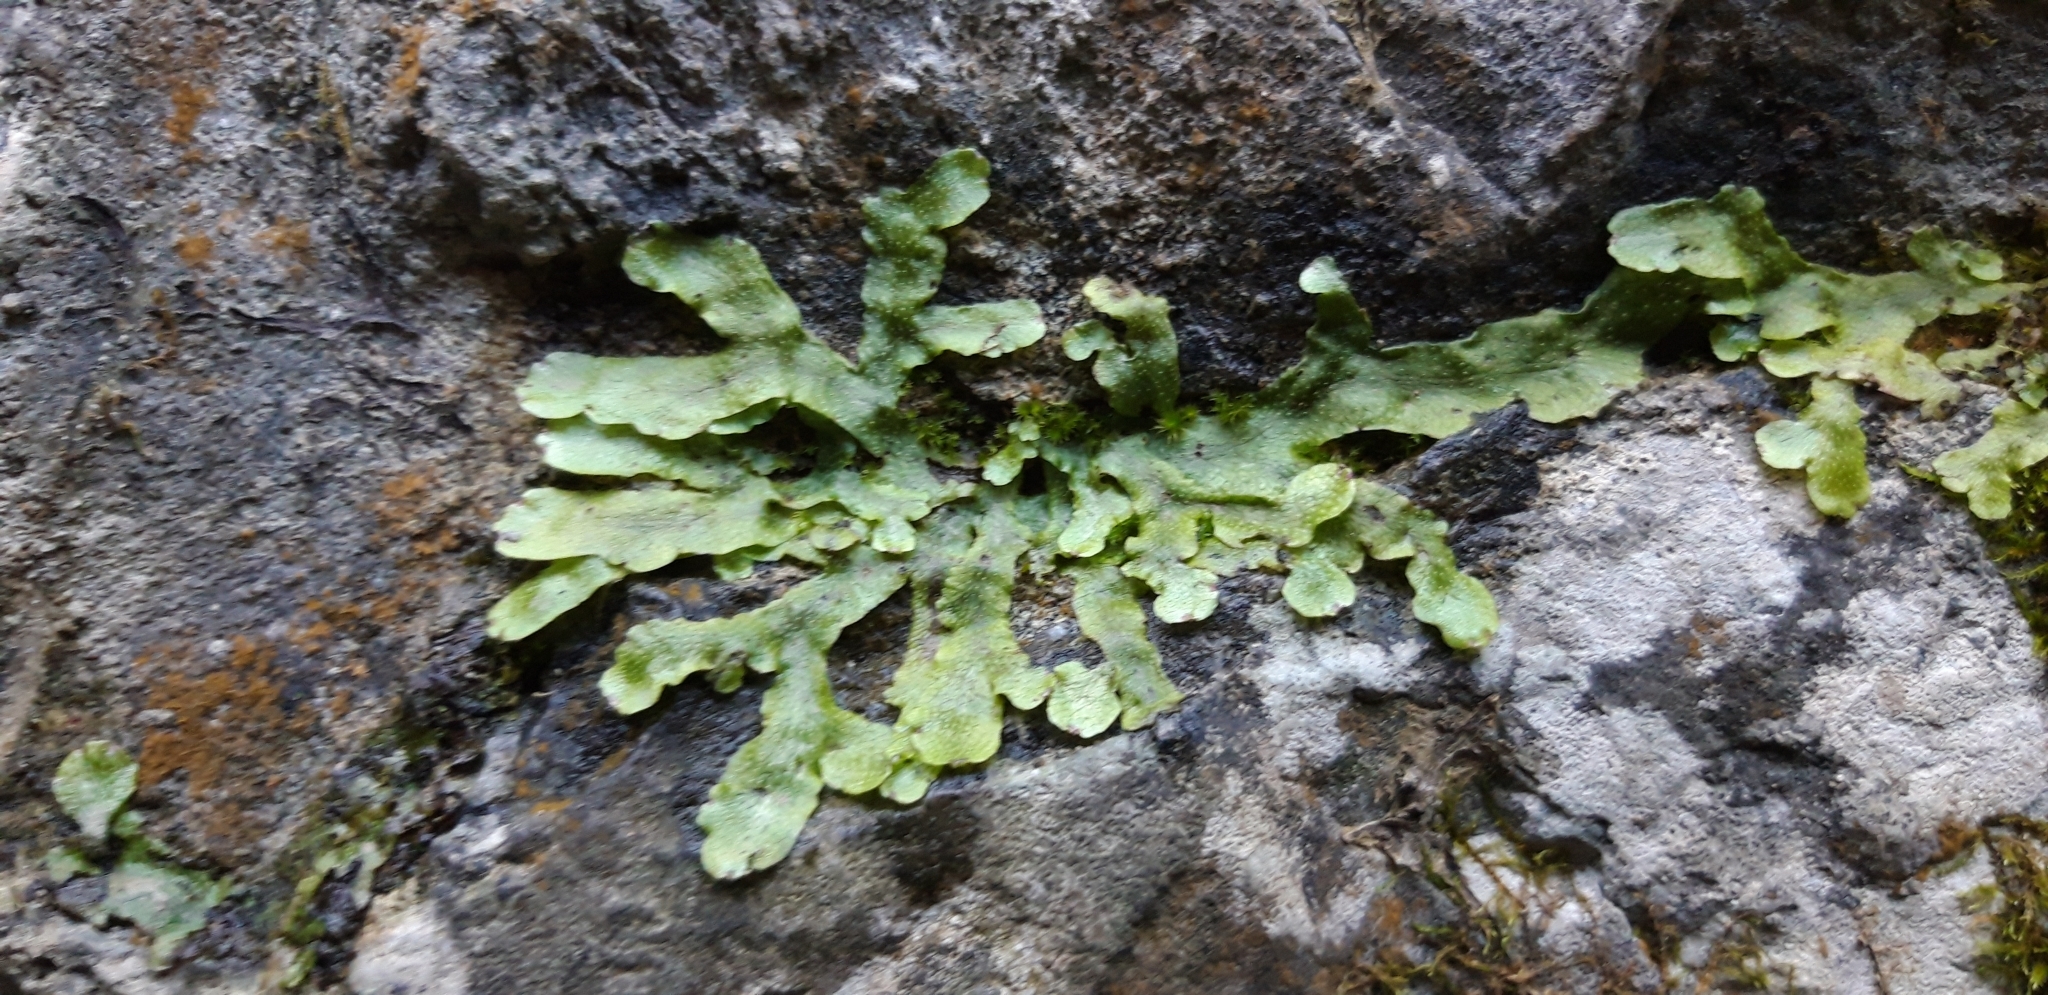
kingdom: Plantae
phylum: Marchantiophyta
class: Marchantiopsida
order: Marchantiales
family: Conocephalaceae
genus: Conocephalum
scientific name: Conocephalum conicum
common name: Great scented liverwort
